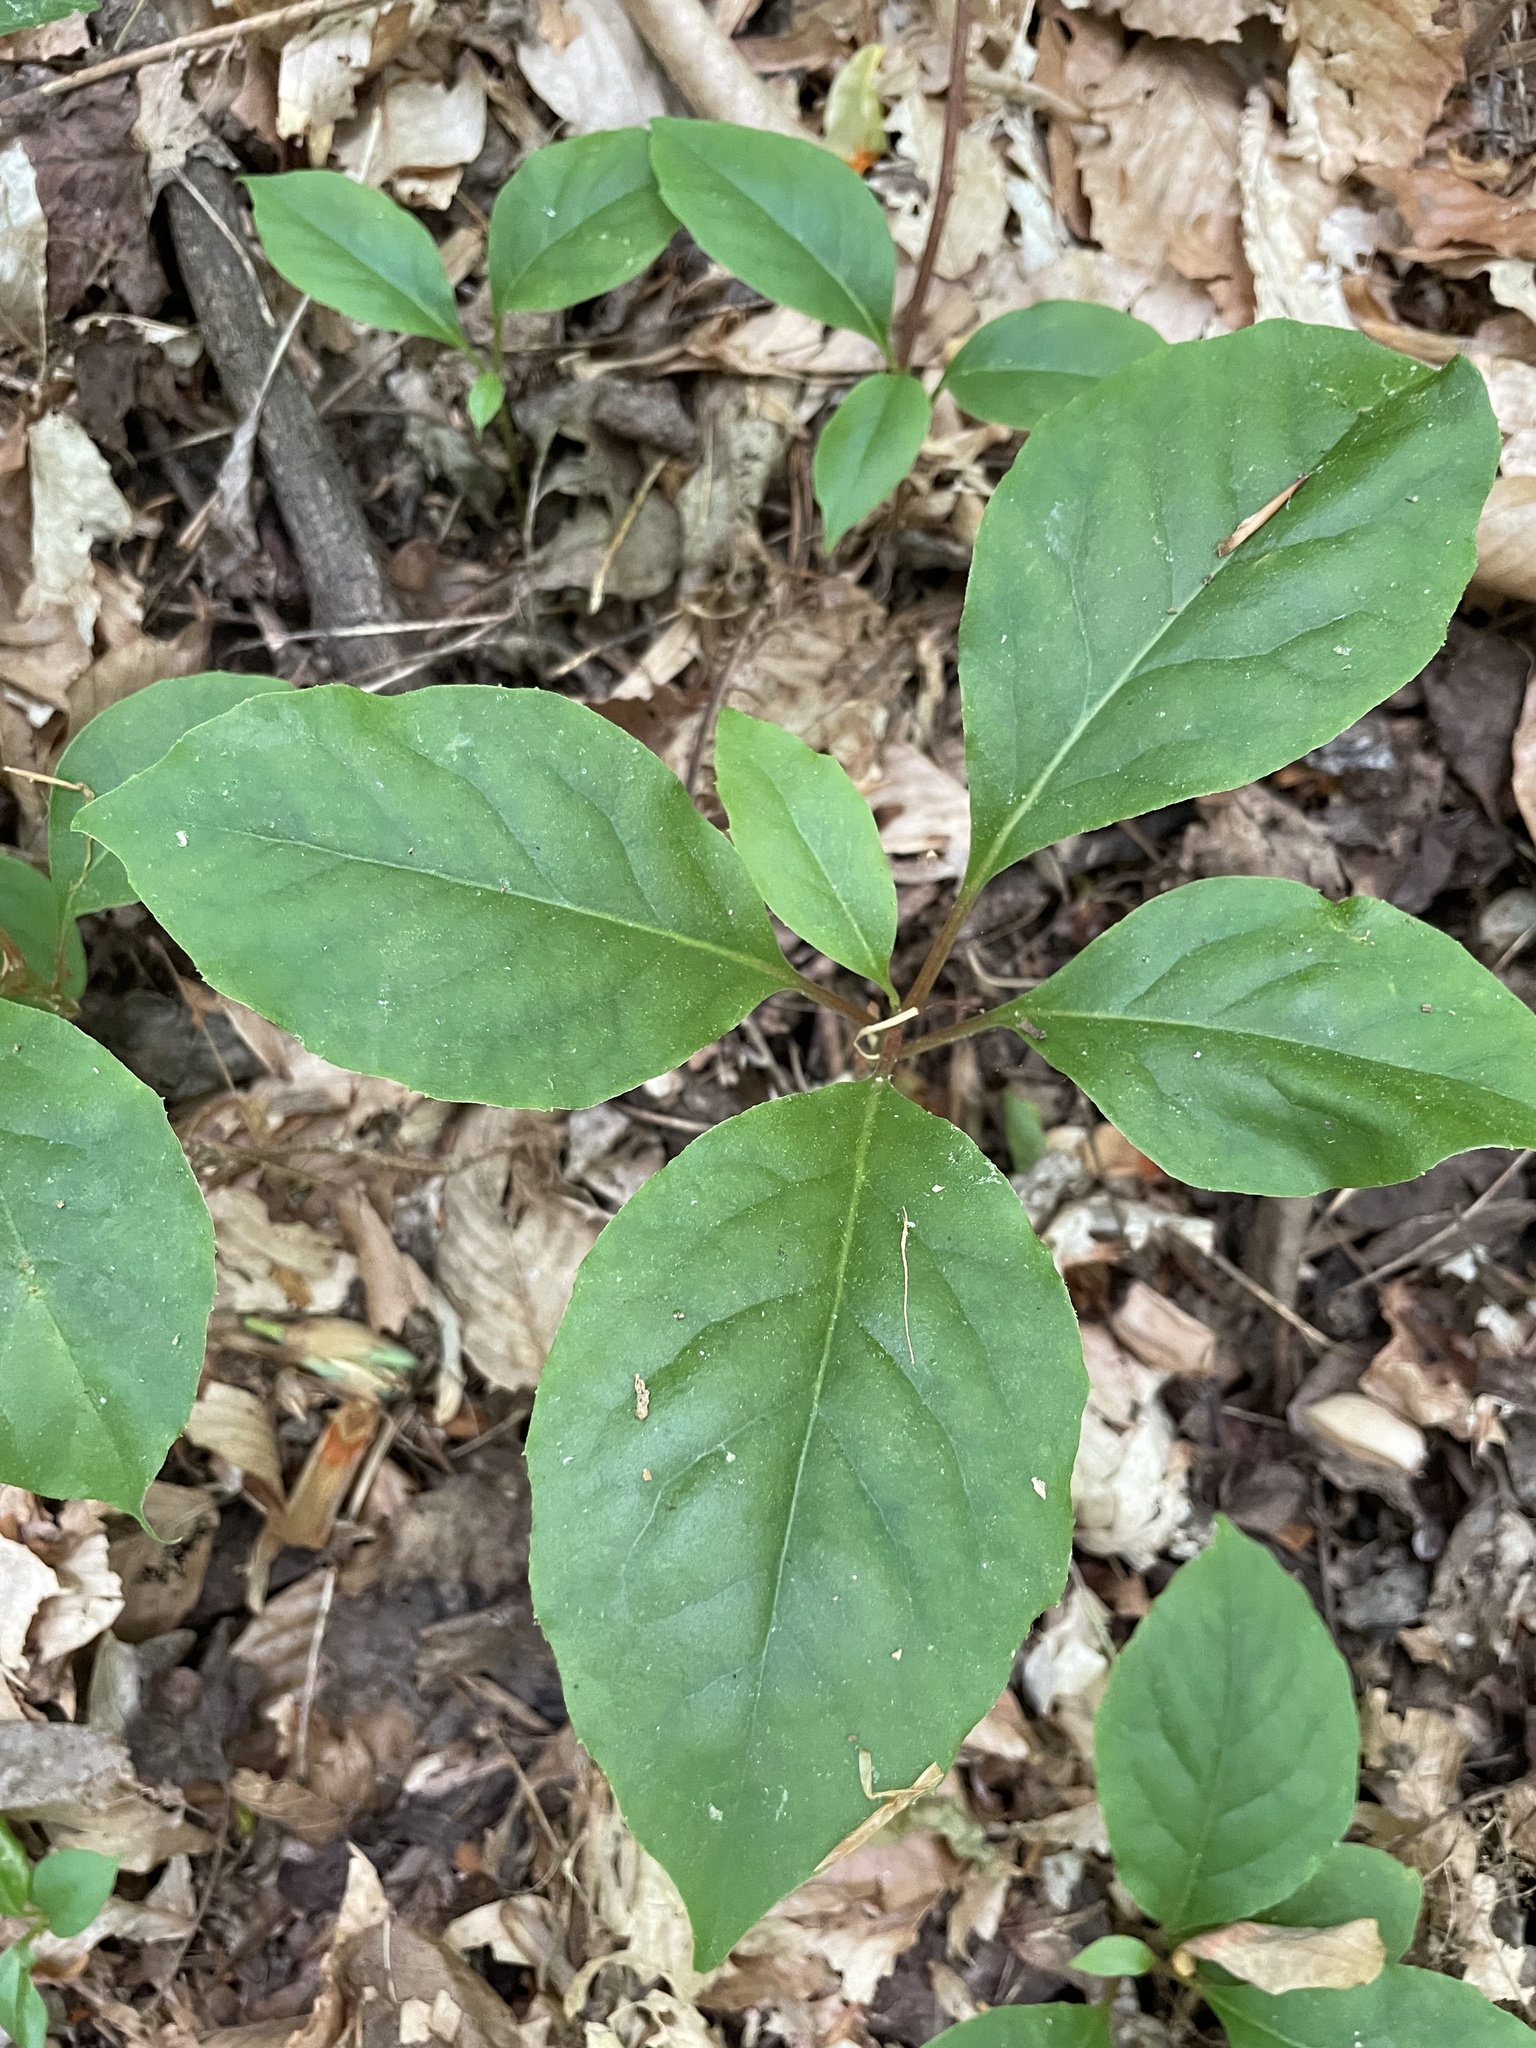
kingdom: Plantae
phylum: Tracheophyta
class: Magnoliopsida
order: Austrobaileyales
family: Schisandraceae
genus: Schisandra
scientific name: Schisandra glabra
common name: Bay-starvine
